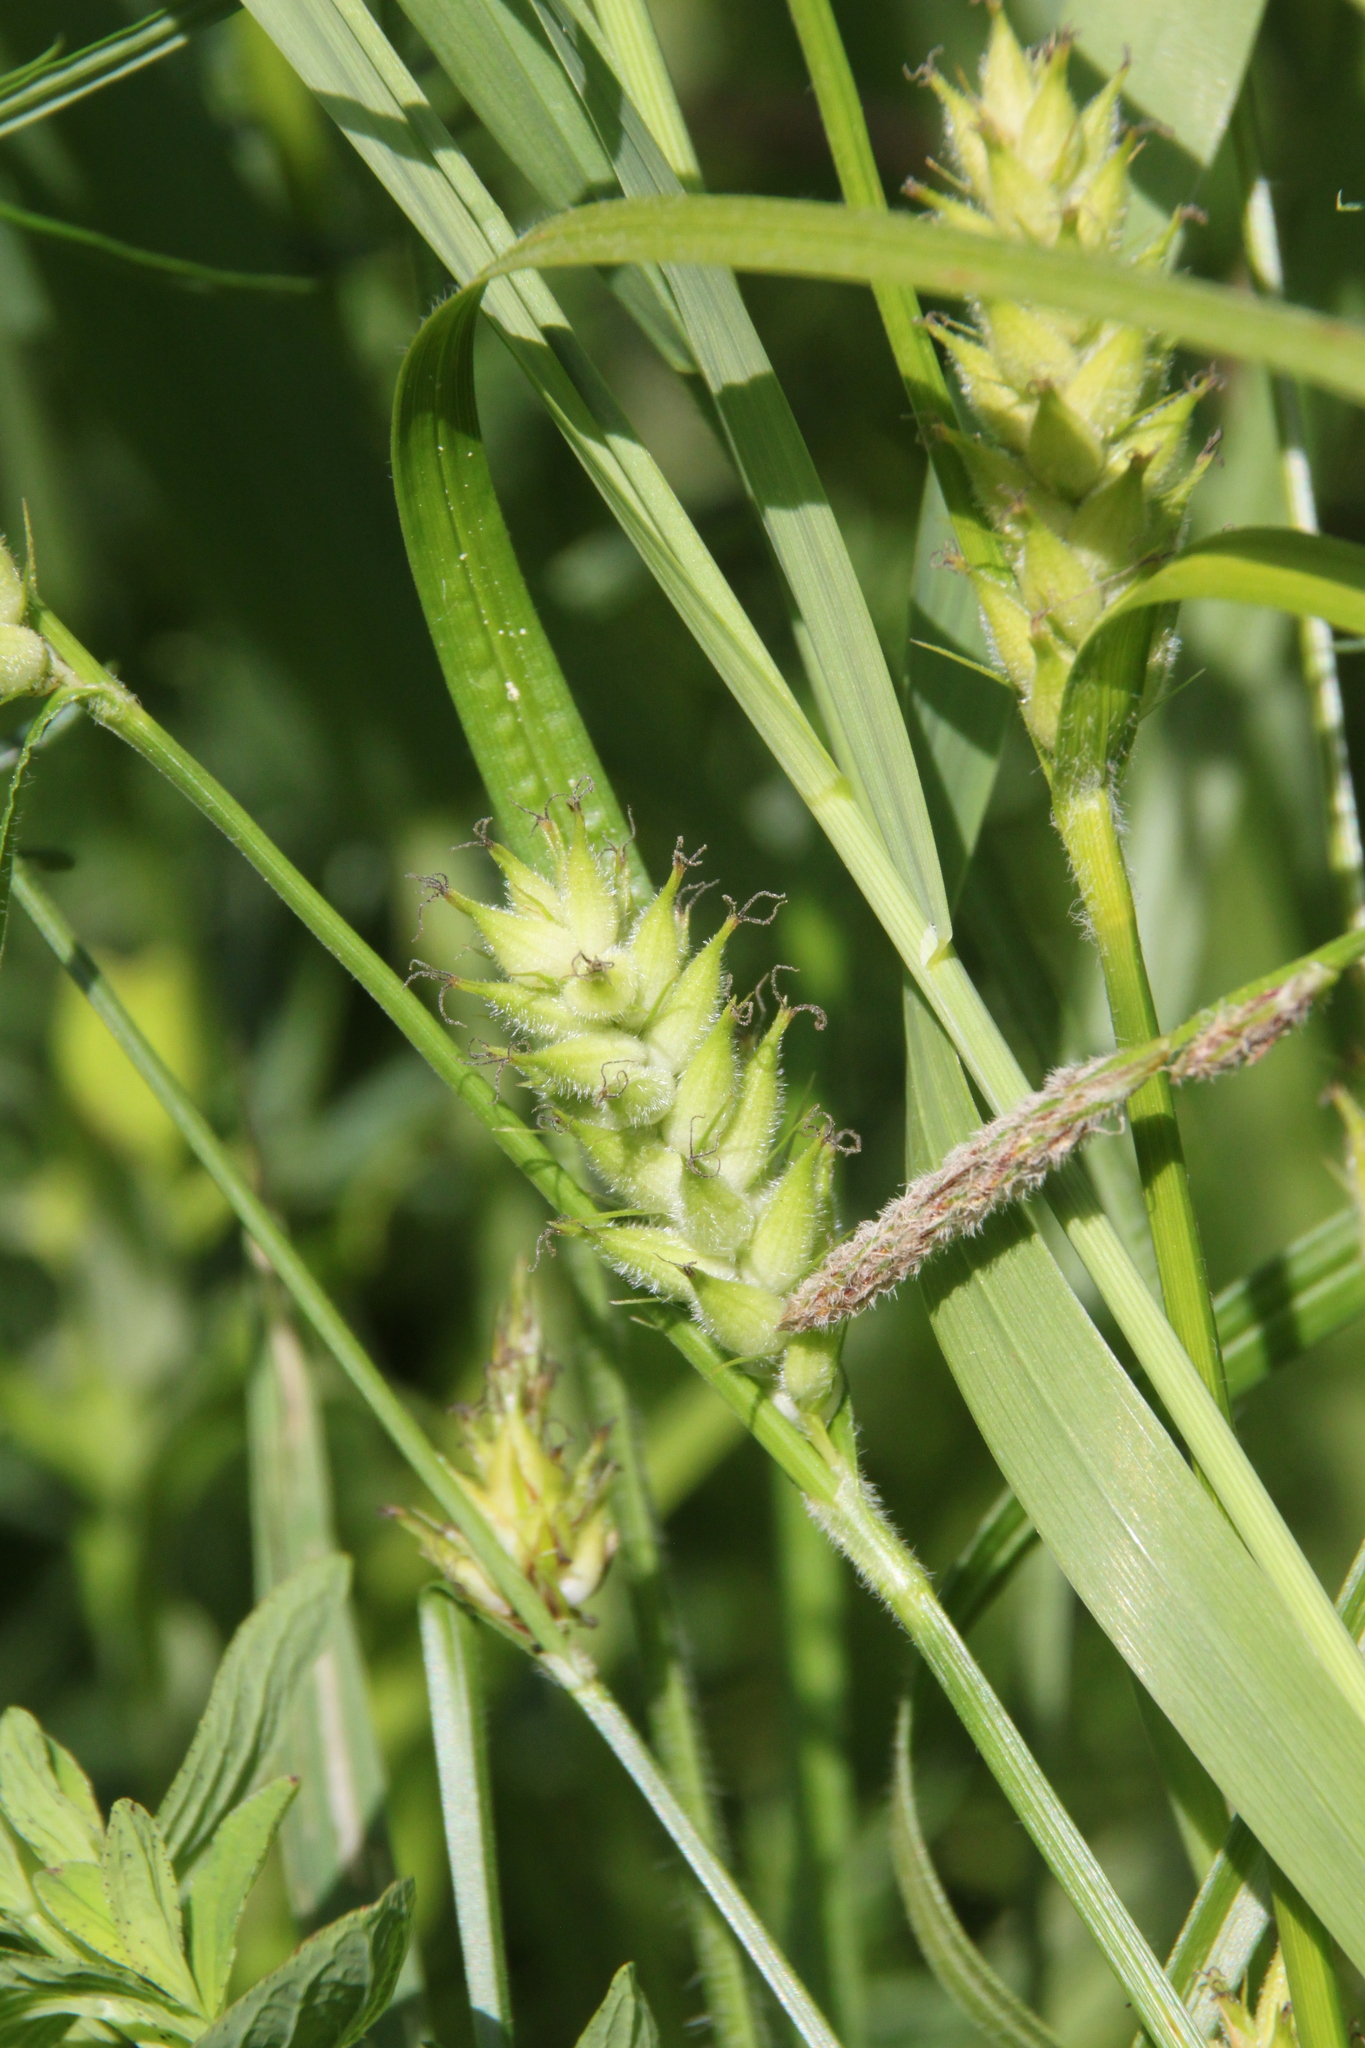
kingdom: Plantae
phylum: Tracheophyta
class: Liliopsida
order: Poales
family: Cyperaceae
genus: Carex
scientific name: Carex hirta
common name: Hairy sedge
